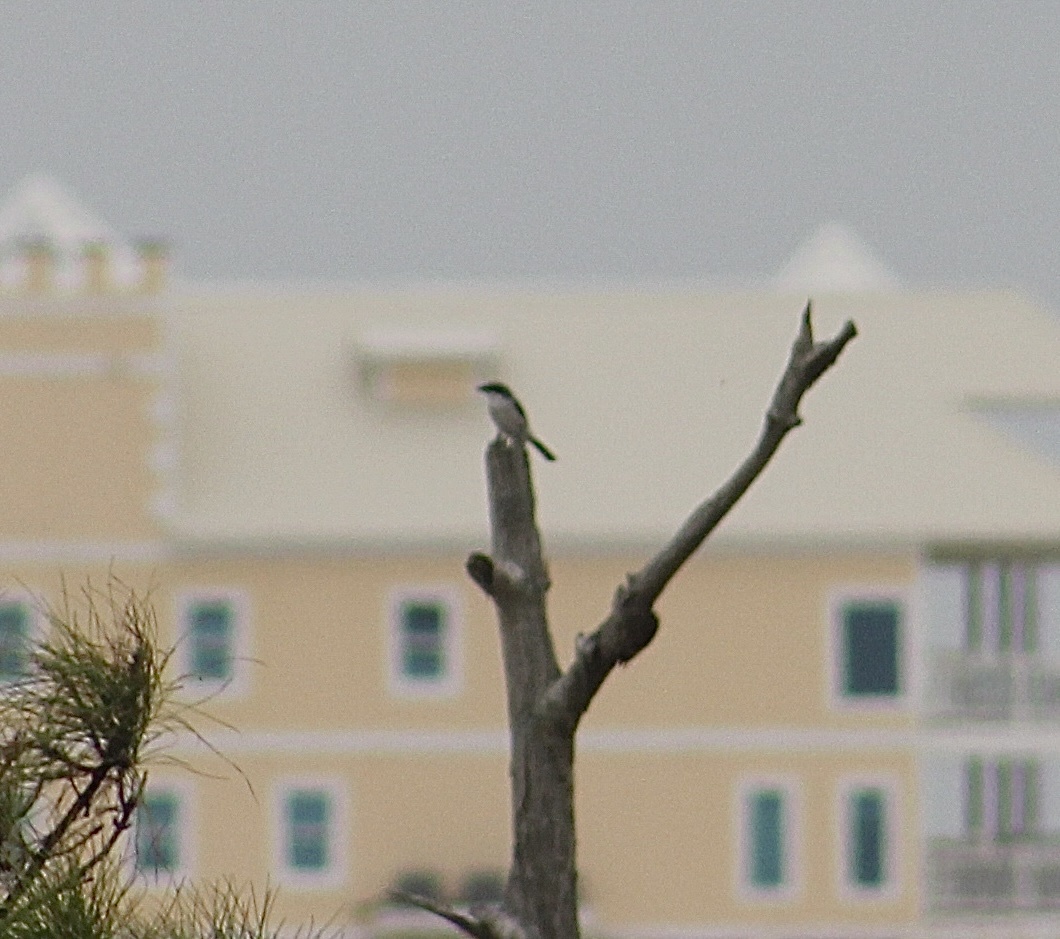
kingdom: Animalia
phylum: Chordata
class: Aves
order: Passeriformes
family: Laniidae
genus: Lanius
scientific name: Lanius ludovicianus
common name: Loggerhead shrike
